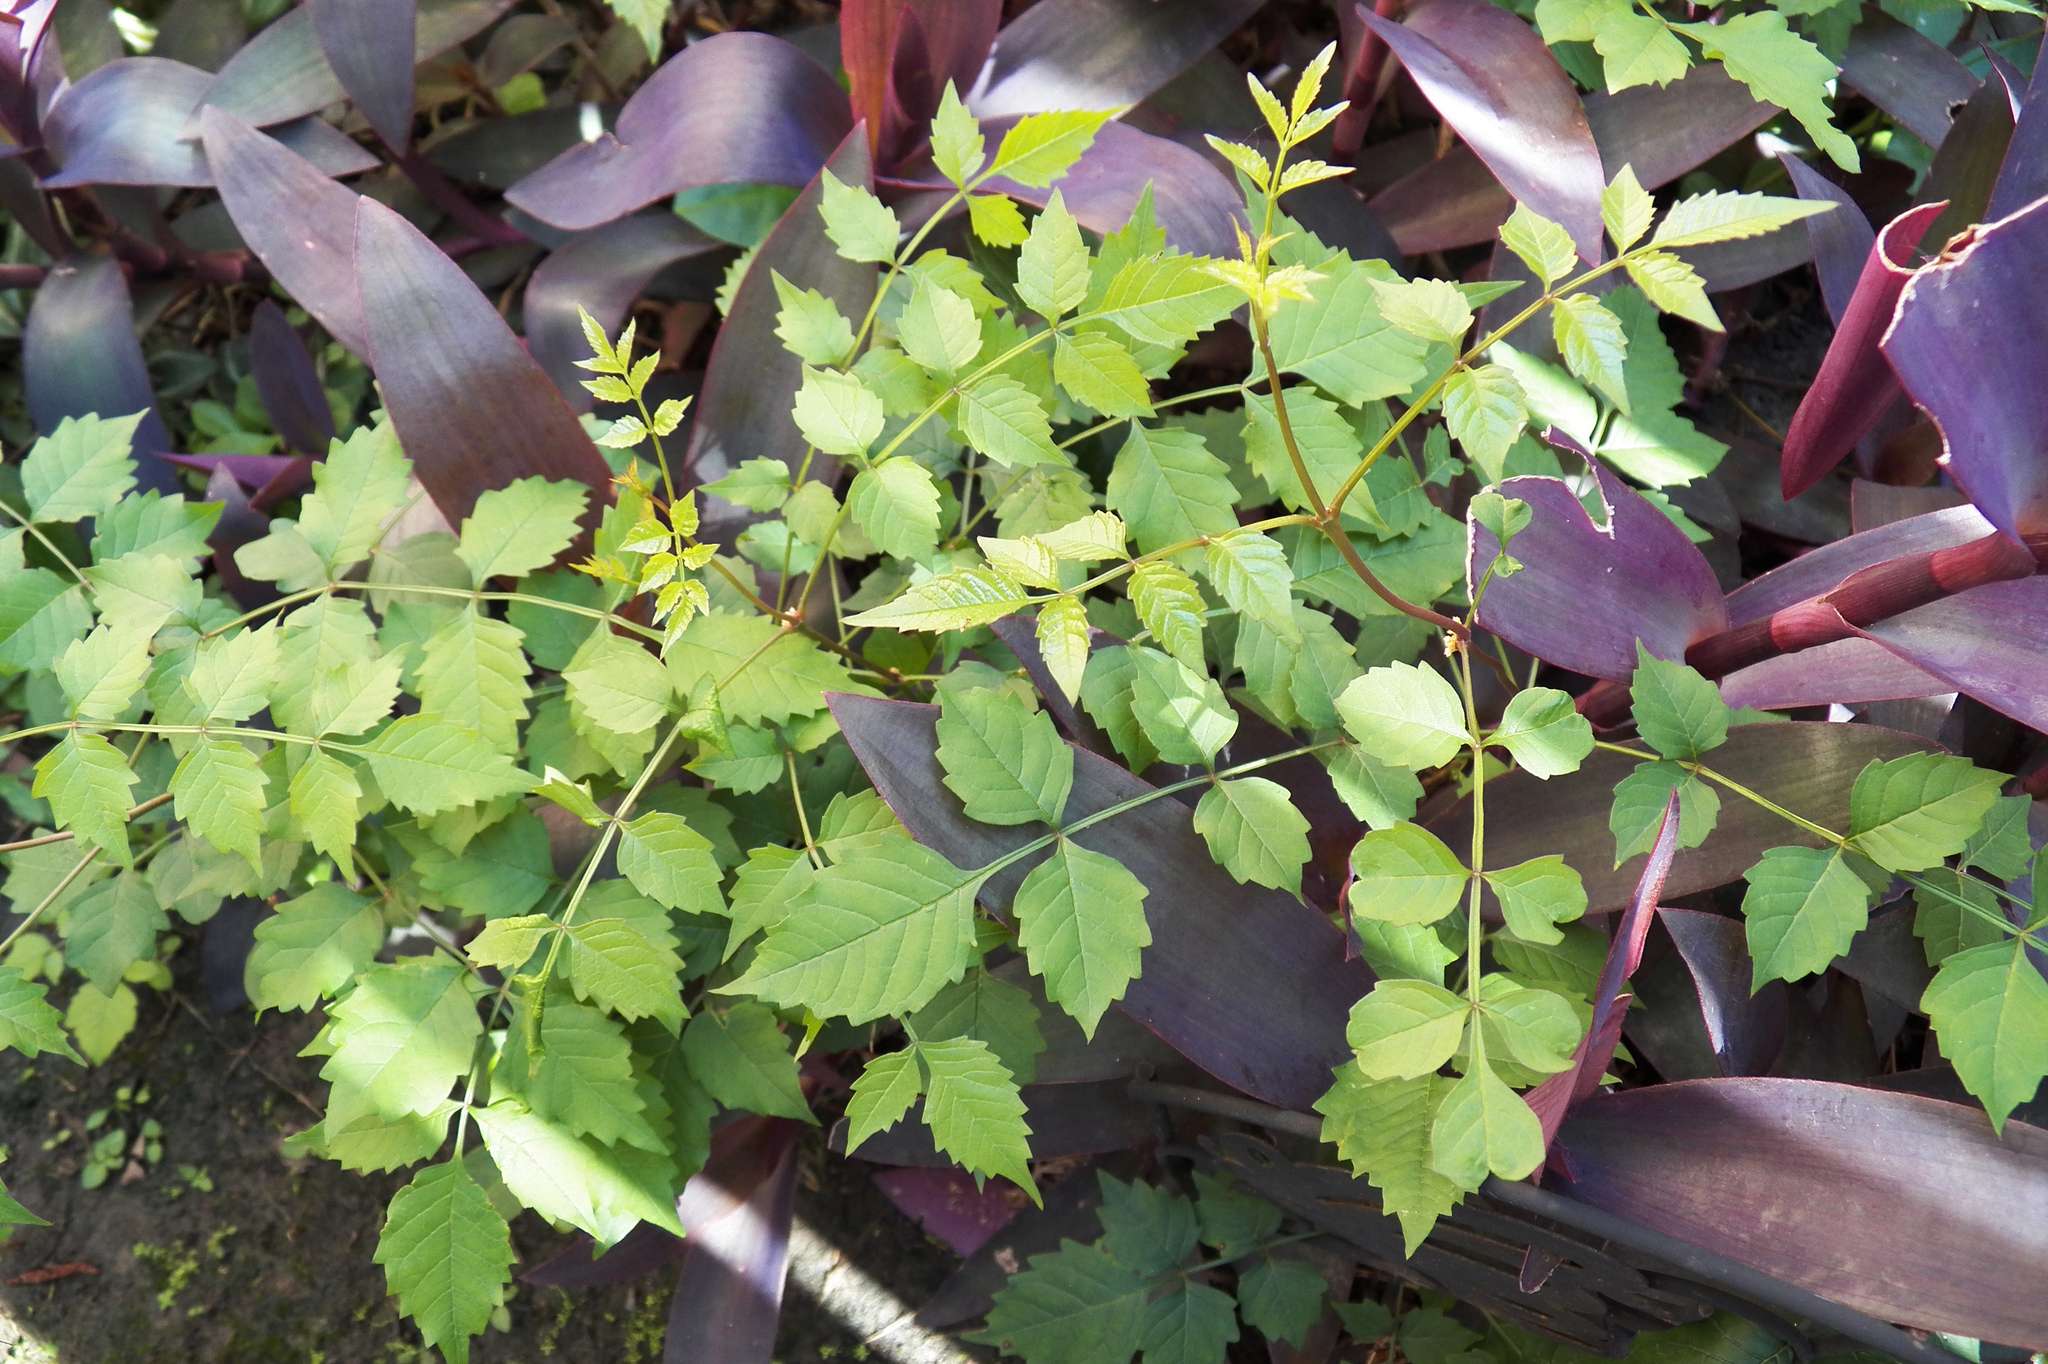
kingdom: Plantae
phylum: Tracheophyta
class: Magnoliopsida
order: Lamiales
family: Bignoniaceae
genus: Campsis
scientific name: Campsis radicans
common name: Trumpet-creeper
